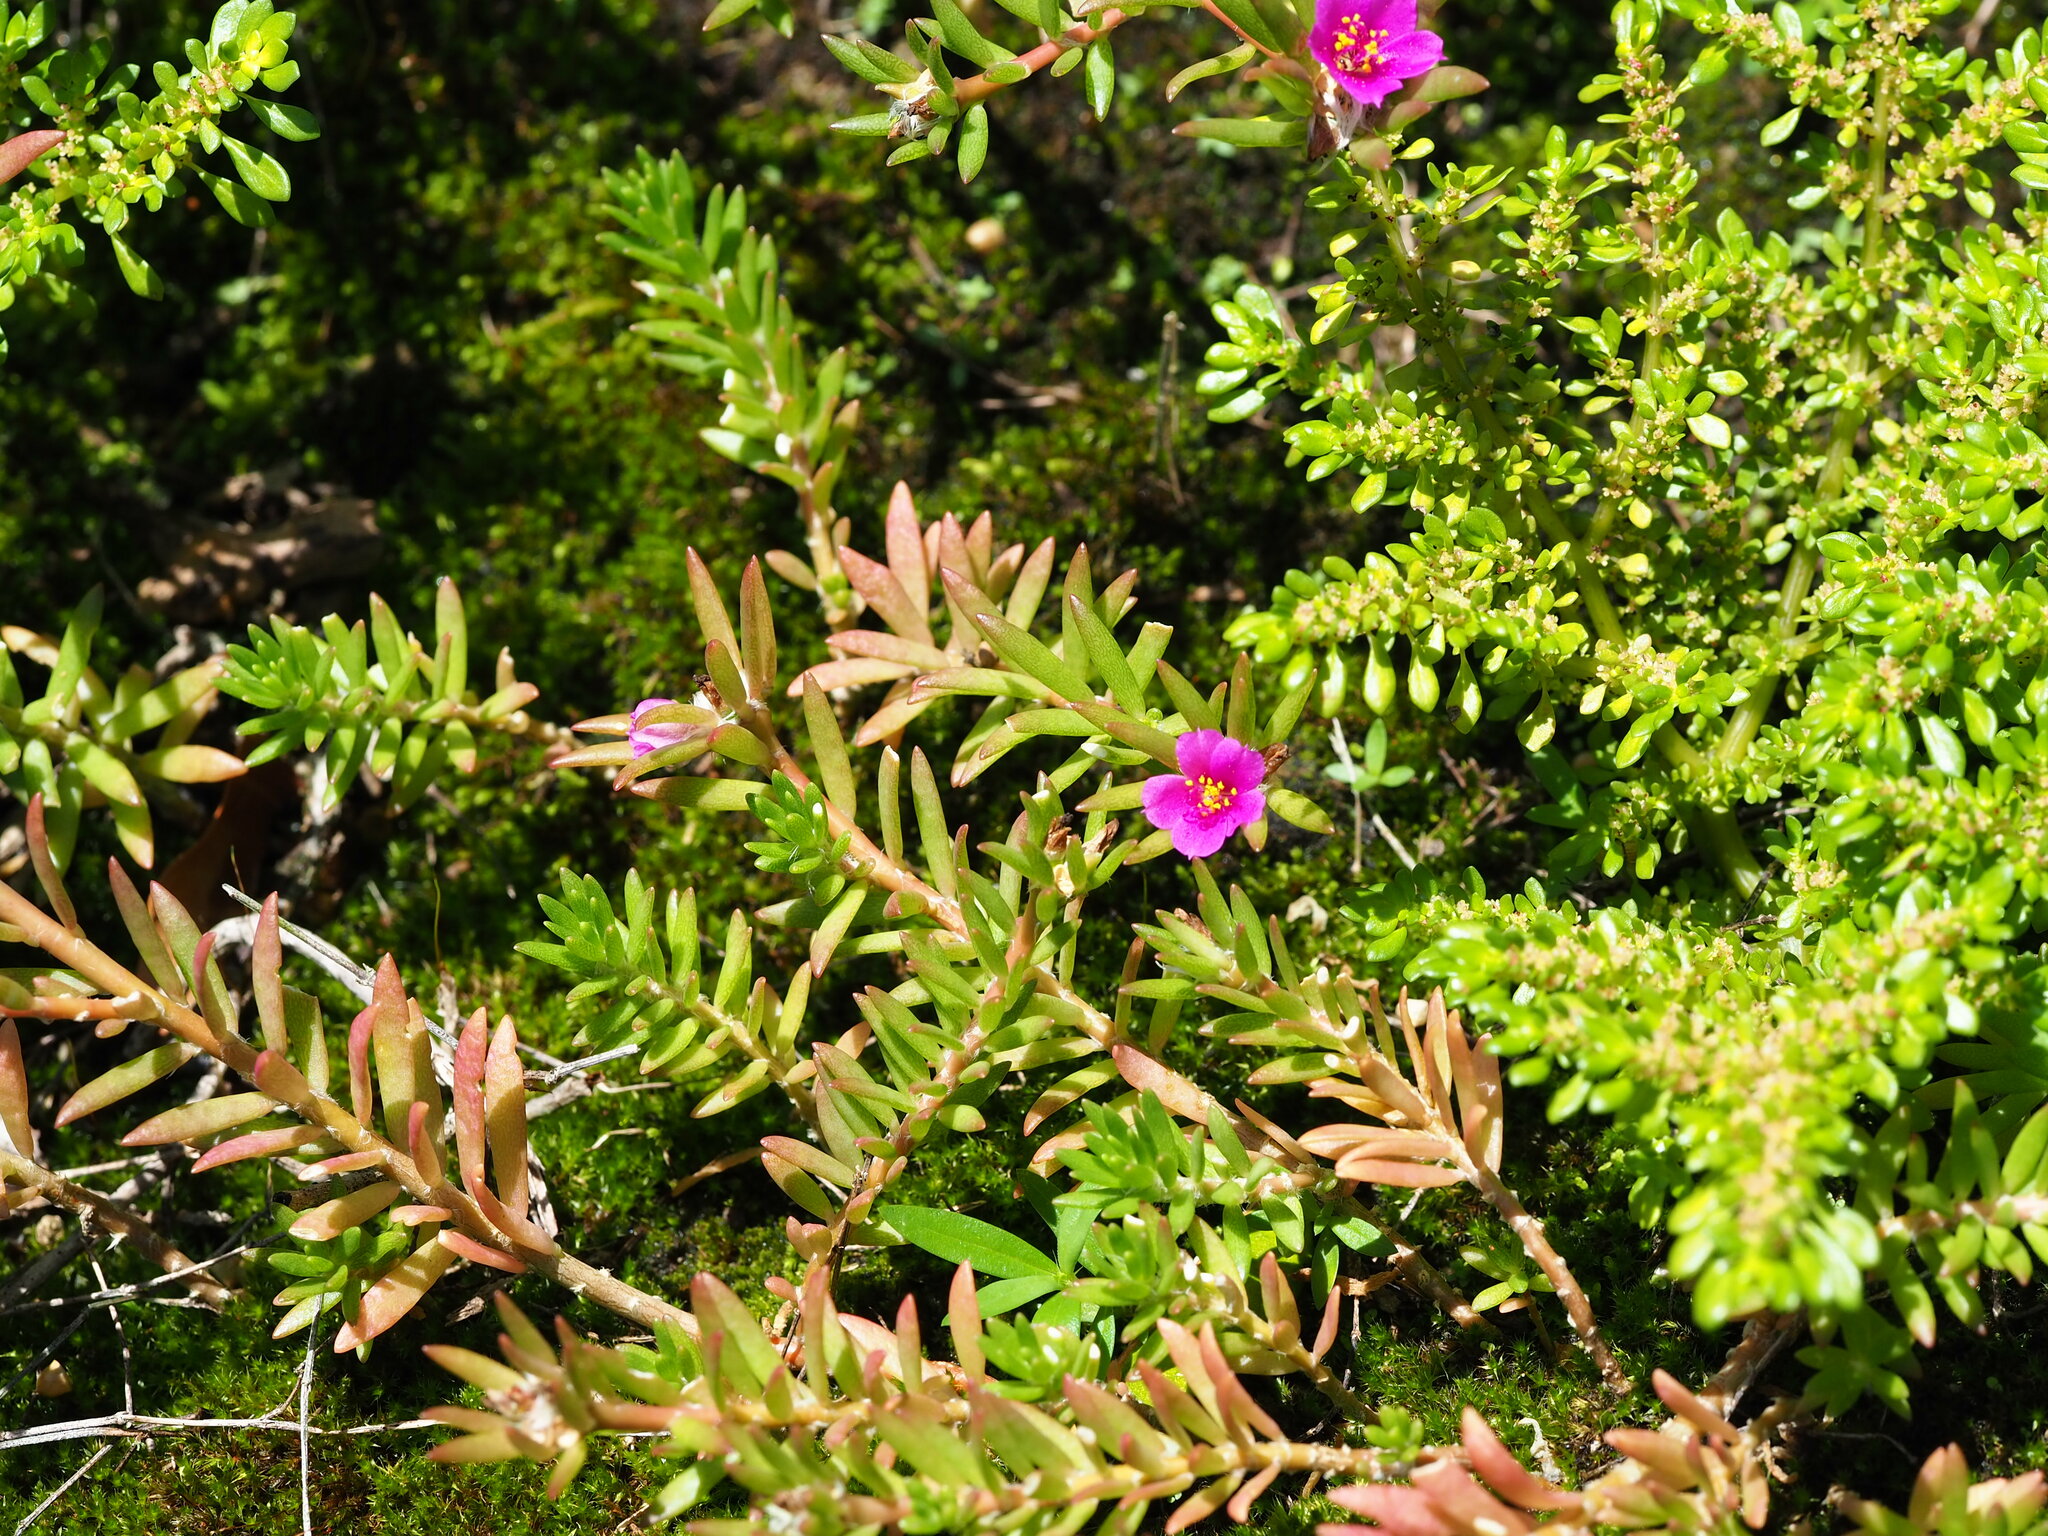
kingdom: Plantae
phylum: Tracheophyta
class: Magnoliopsida
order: Caryophyllales
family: Portulacaceae
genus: Portulaca
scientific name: Portulaca pilosa
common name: Kiss me quick
